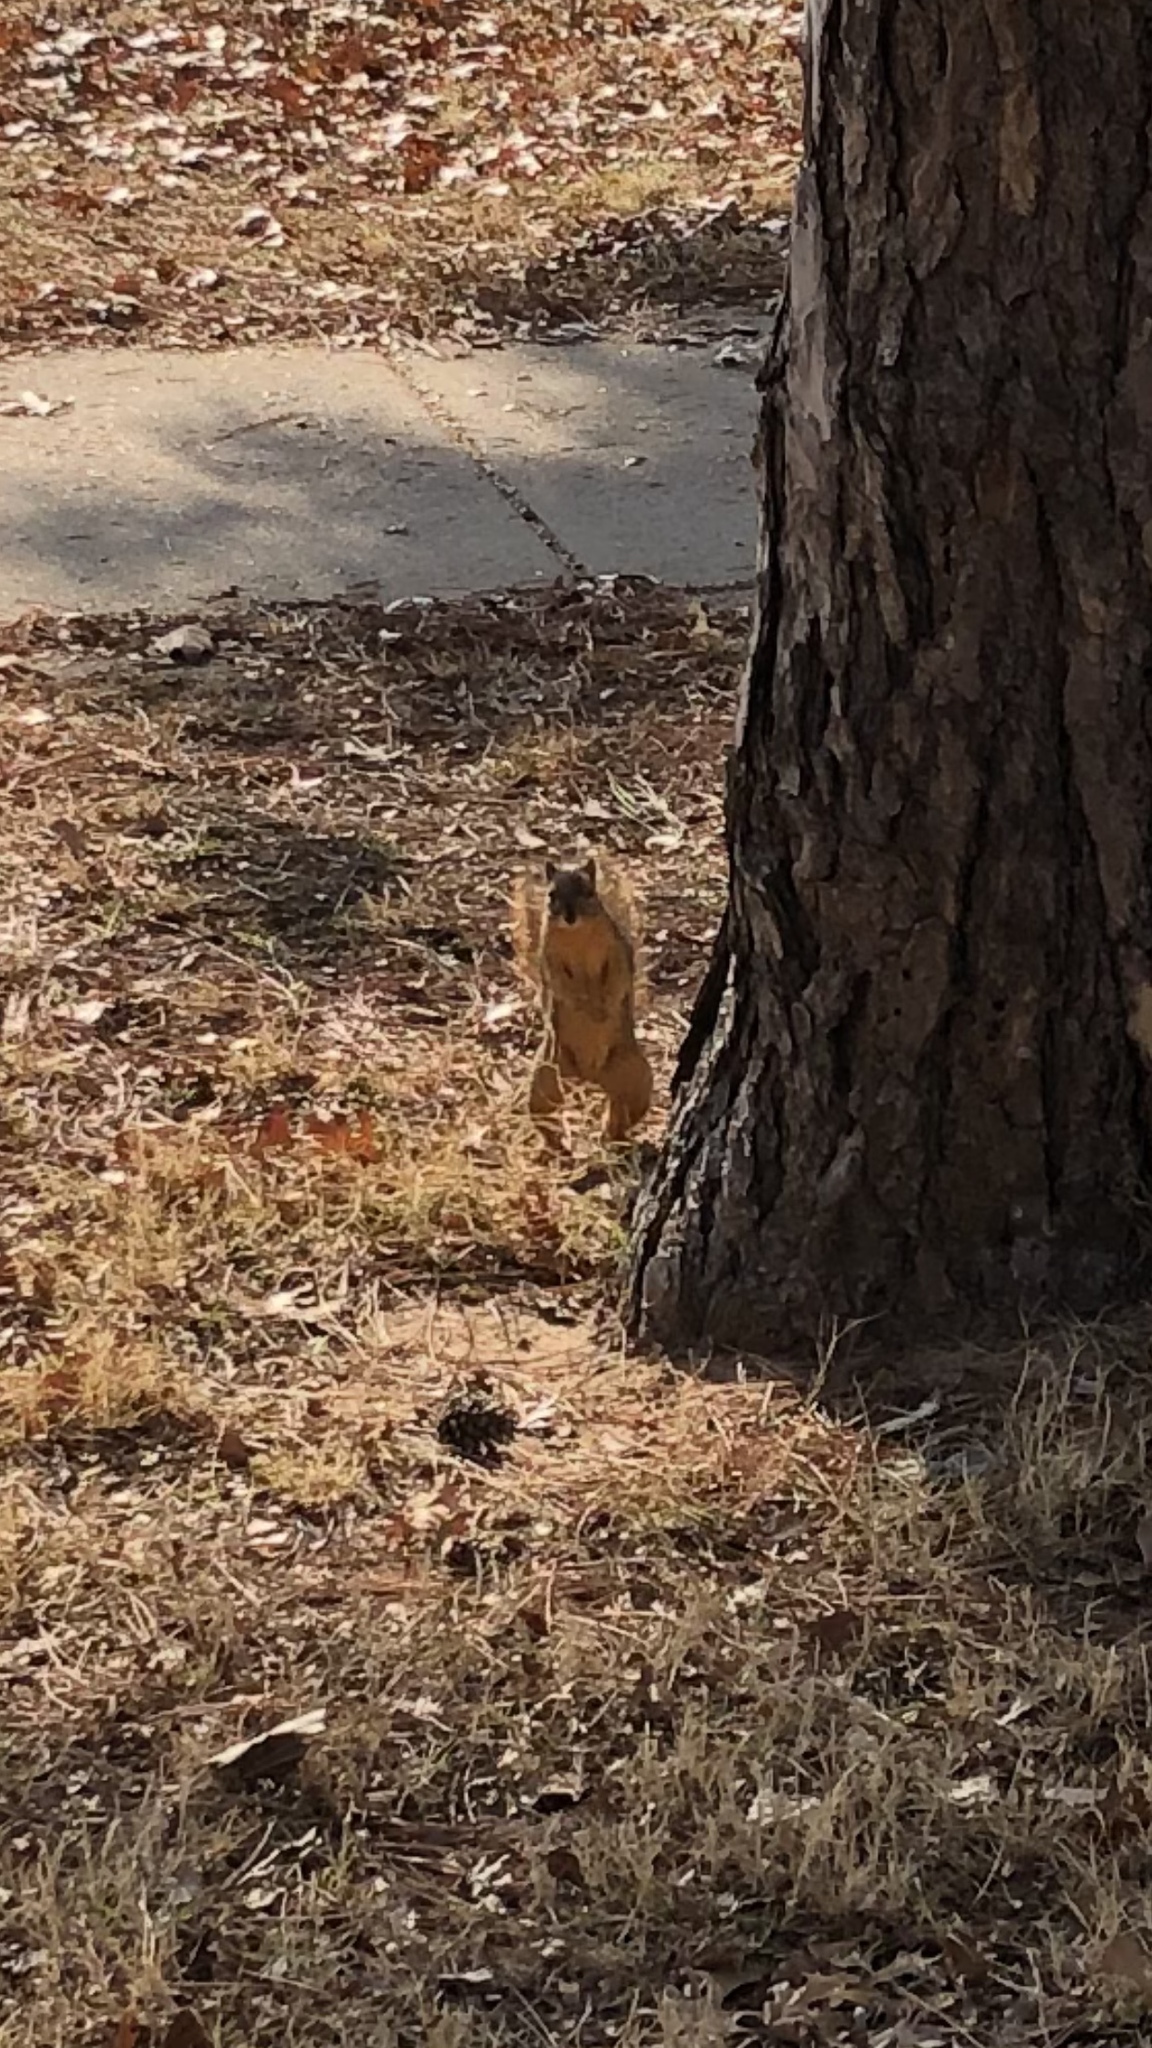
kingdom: Animalia
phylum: Chordata
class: Mammalia
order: Rodentia
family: Sciuridae
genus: Sciurus
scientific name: Sciurus niger
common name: Fox squirrel
